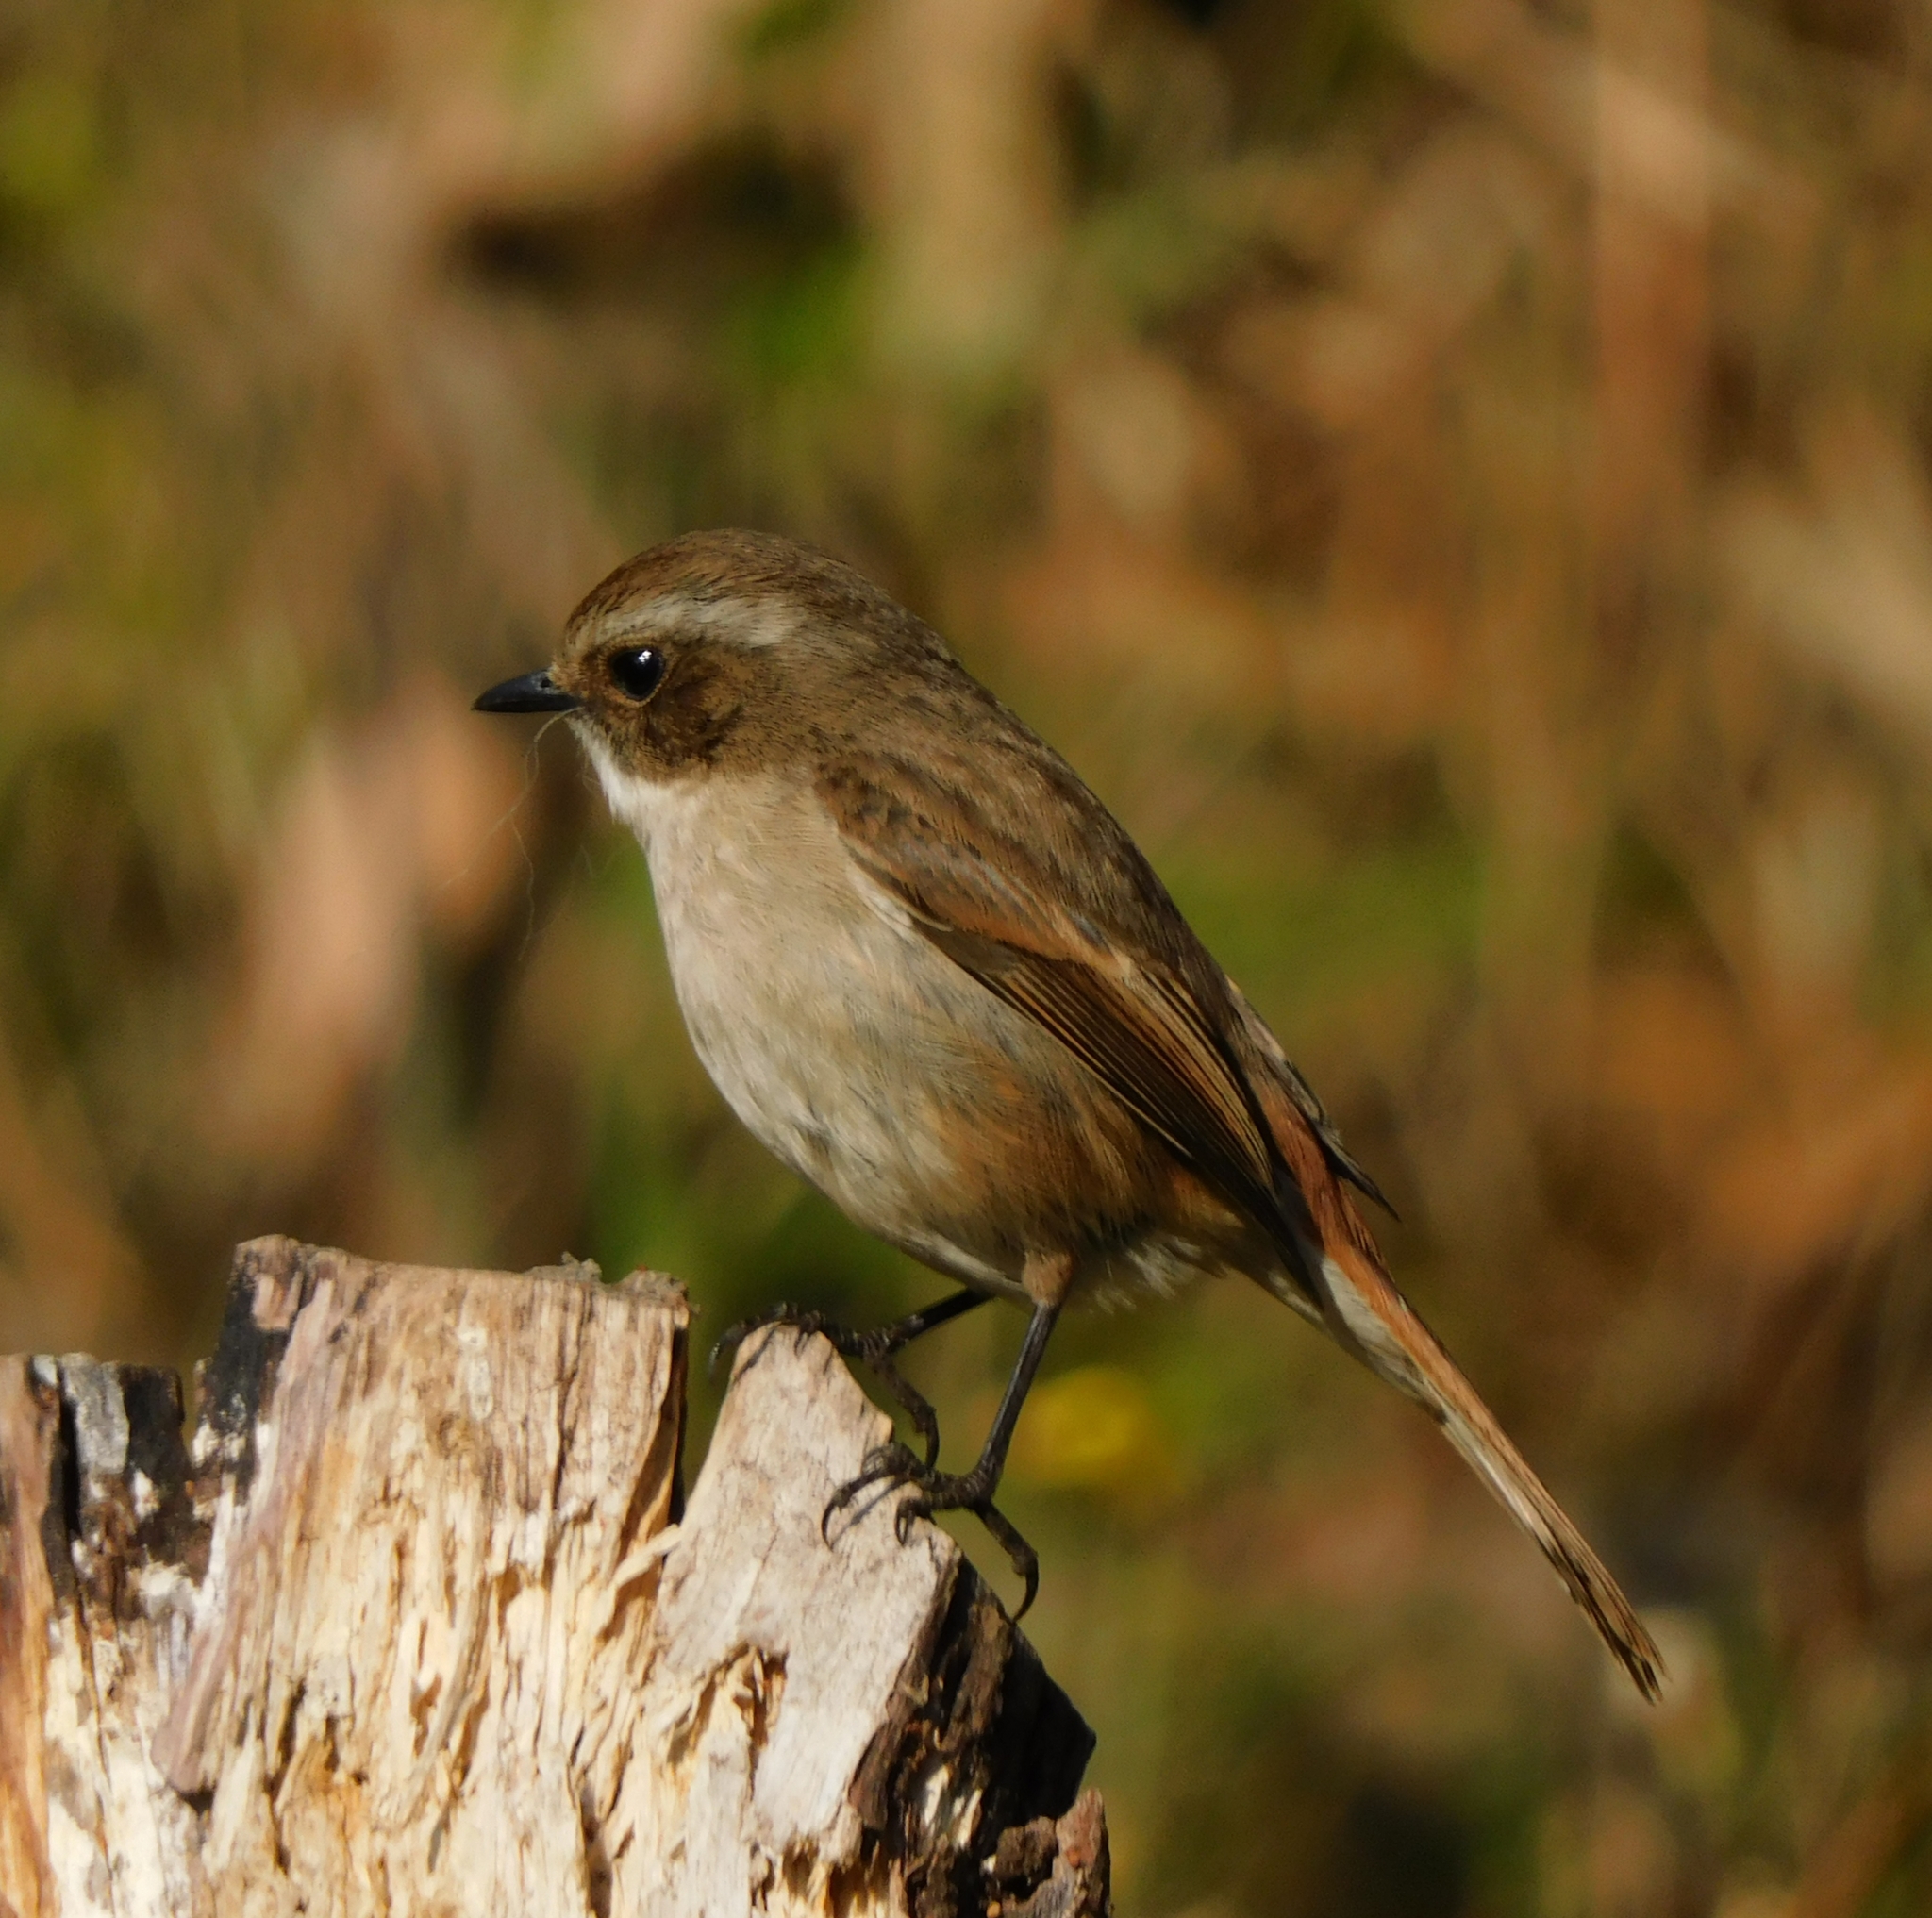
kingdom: Animalia
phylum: Chordata
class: Aves
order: Passeriformes
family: Muscicapidae
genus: Saxicola
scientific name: Saxicola ferreus
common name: Grey bush chat
